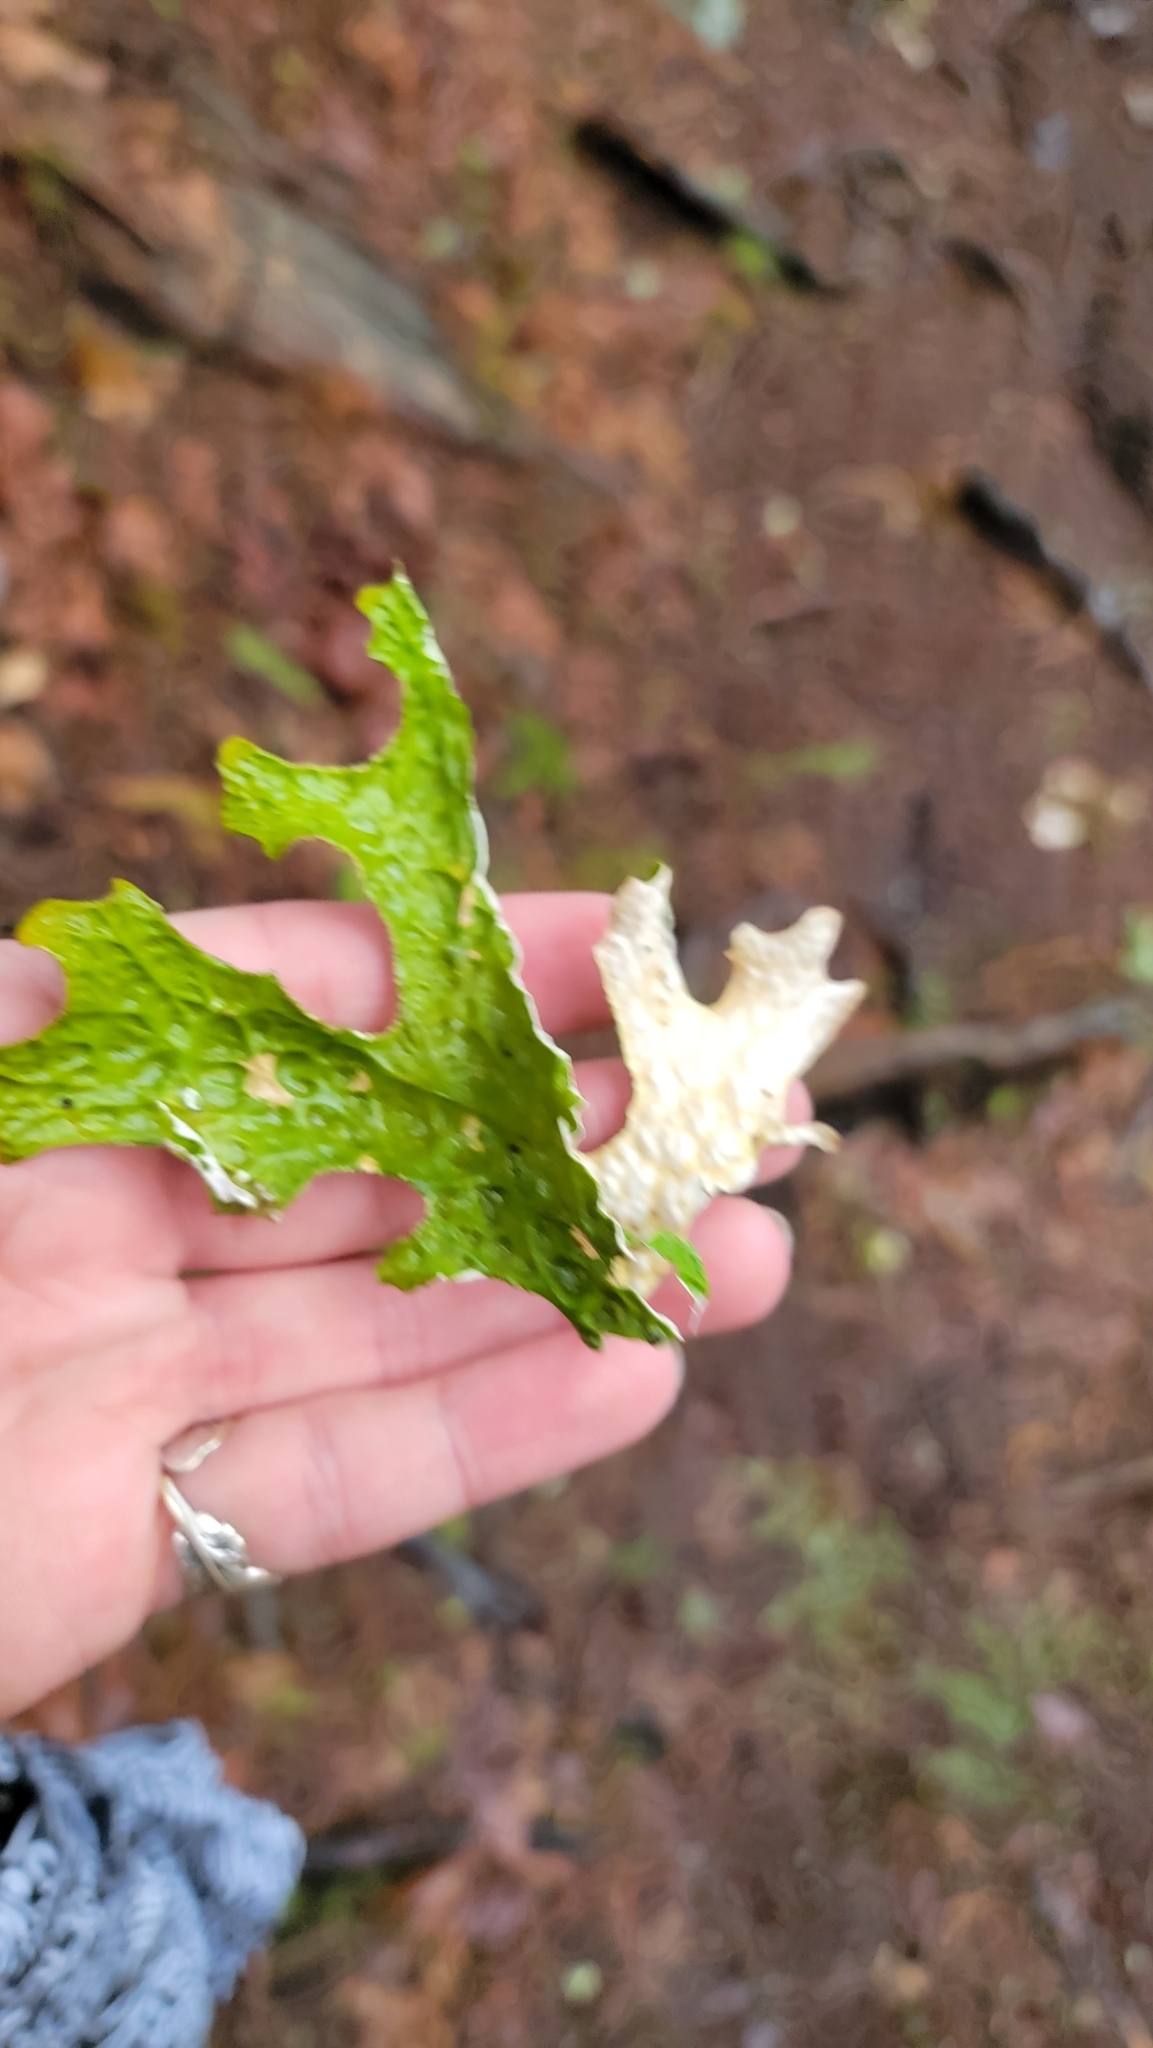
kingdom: Fungi
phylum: Ascomycota
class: Lecanoromycetes
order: Peltigerales
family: Lobariaceae
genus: Lobaria
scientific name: Lobaria pulmonaria
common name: Lungwort
